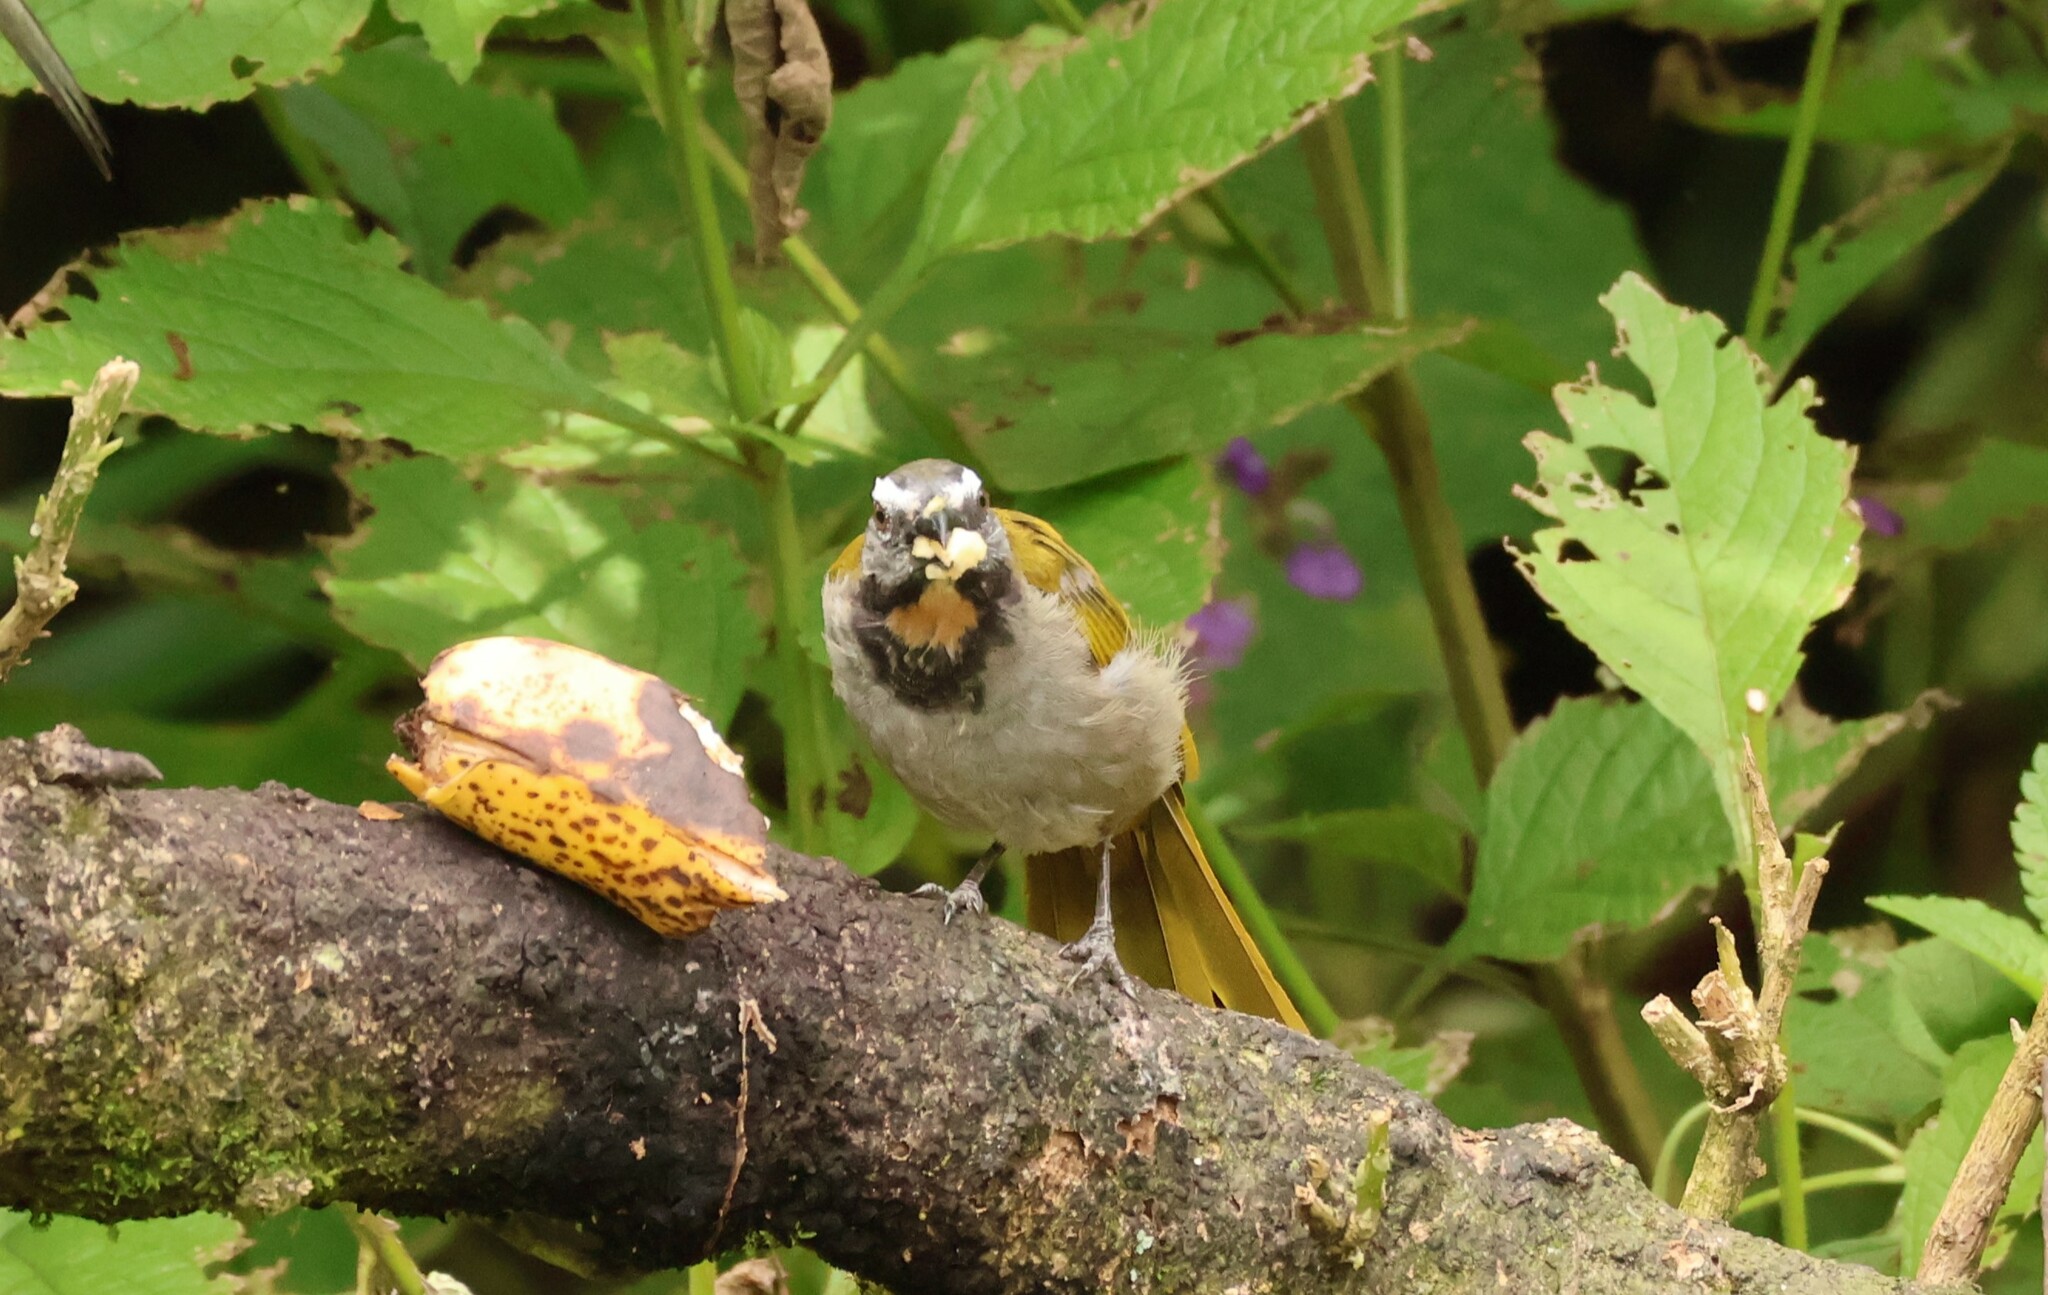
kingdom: Animalia
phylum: Chordata
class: Aves
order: Passeriformes
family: Thraupidae
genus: Saltator
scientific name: Saltator maximus
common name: Buff-throated saltator
